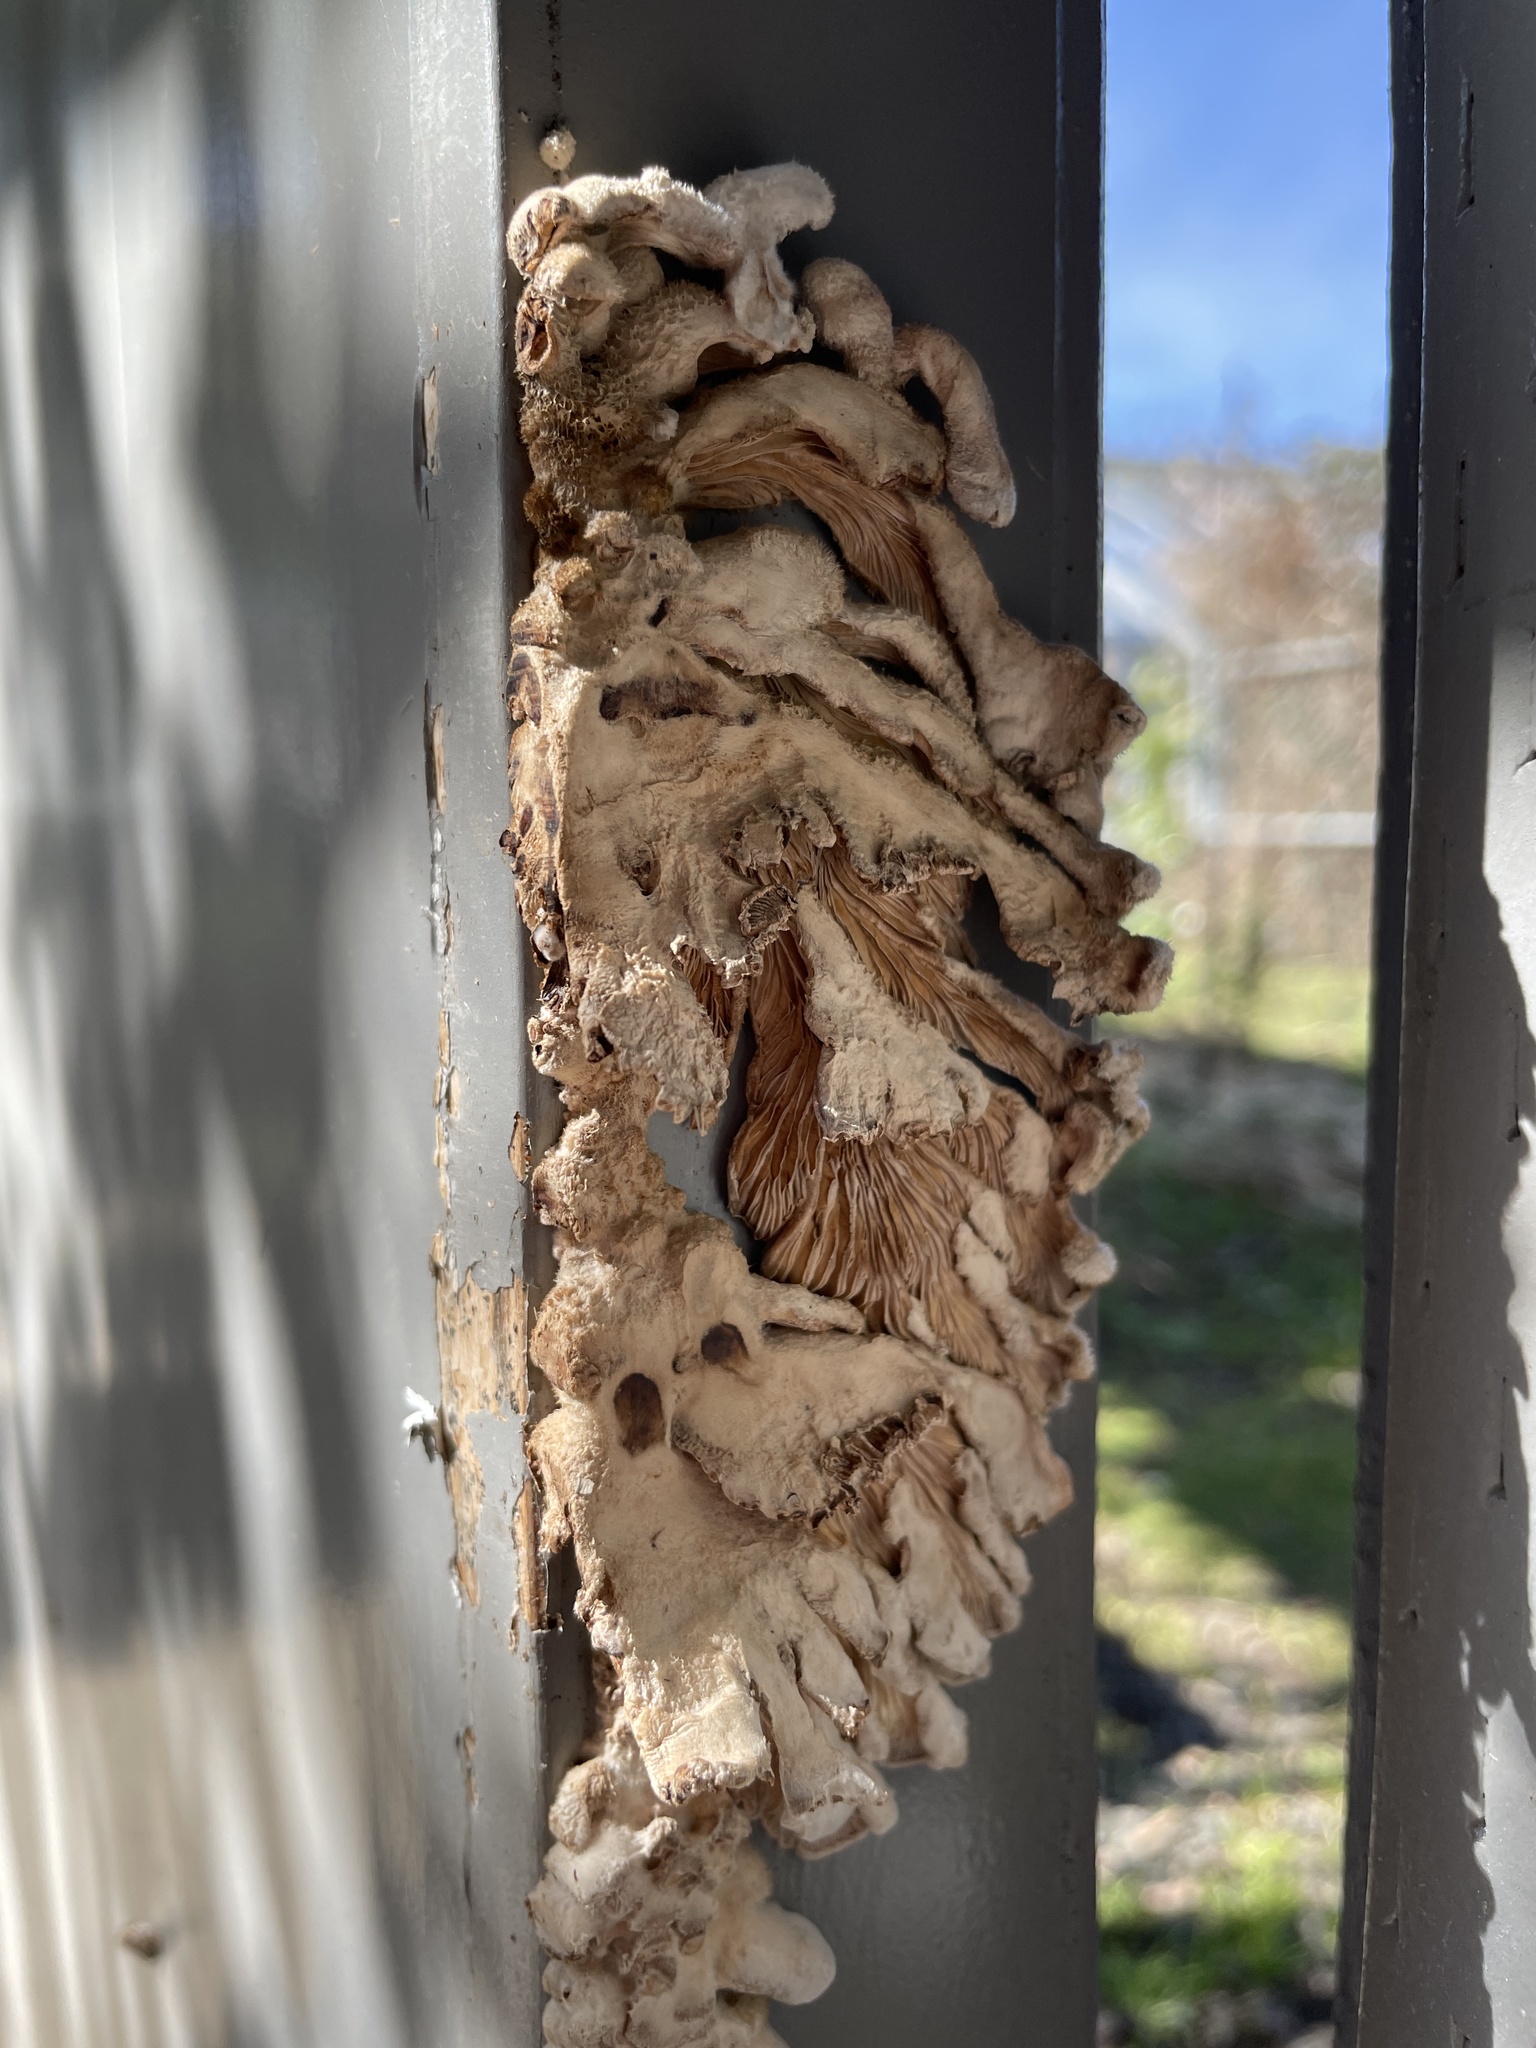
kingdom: Fungi
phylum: Basidiomycota
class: Agaricomycetes
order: Agaricales
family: Schizophyllaceae
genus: Schizophyllum
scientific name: Schizophyllum commune
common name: Common porecrust
